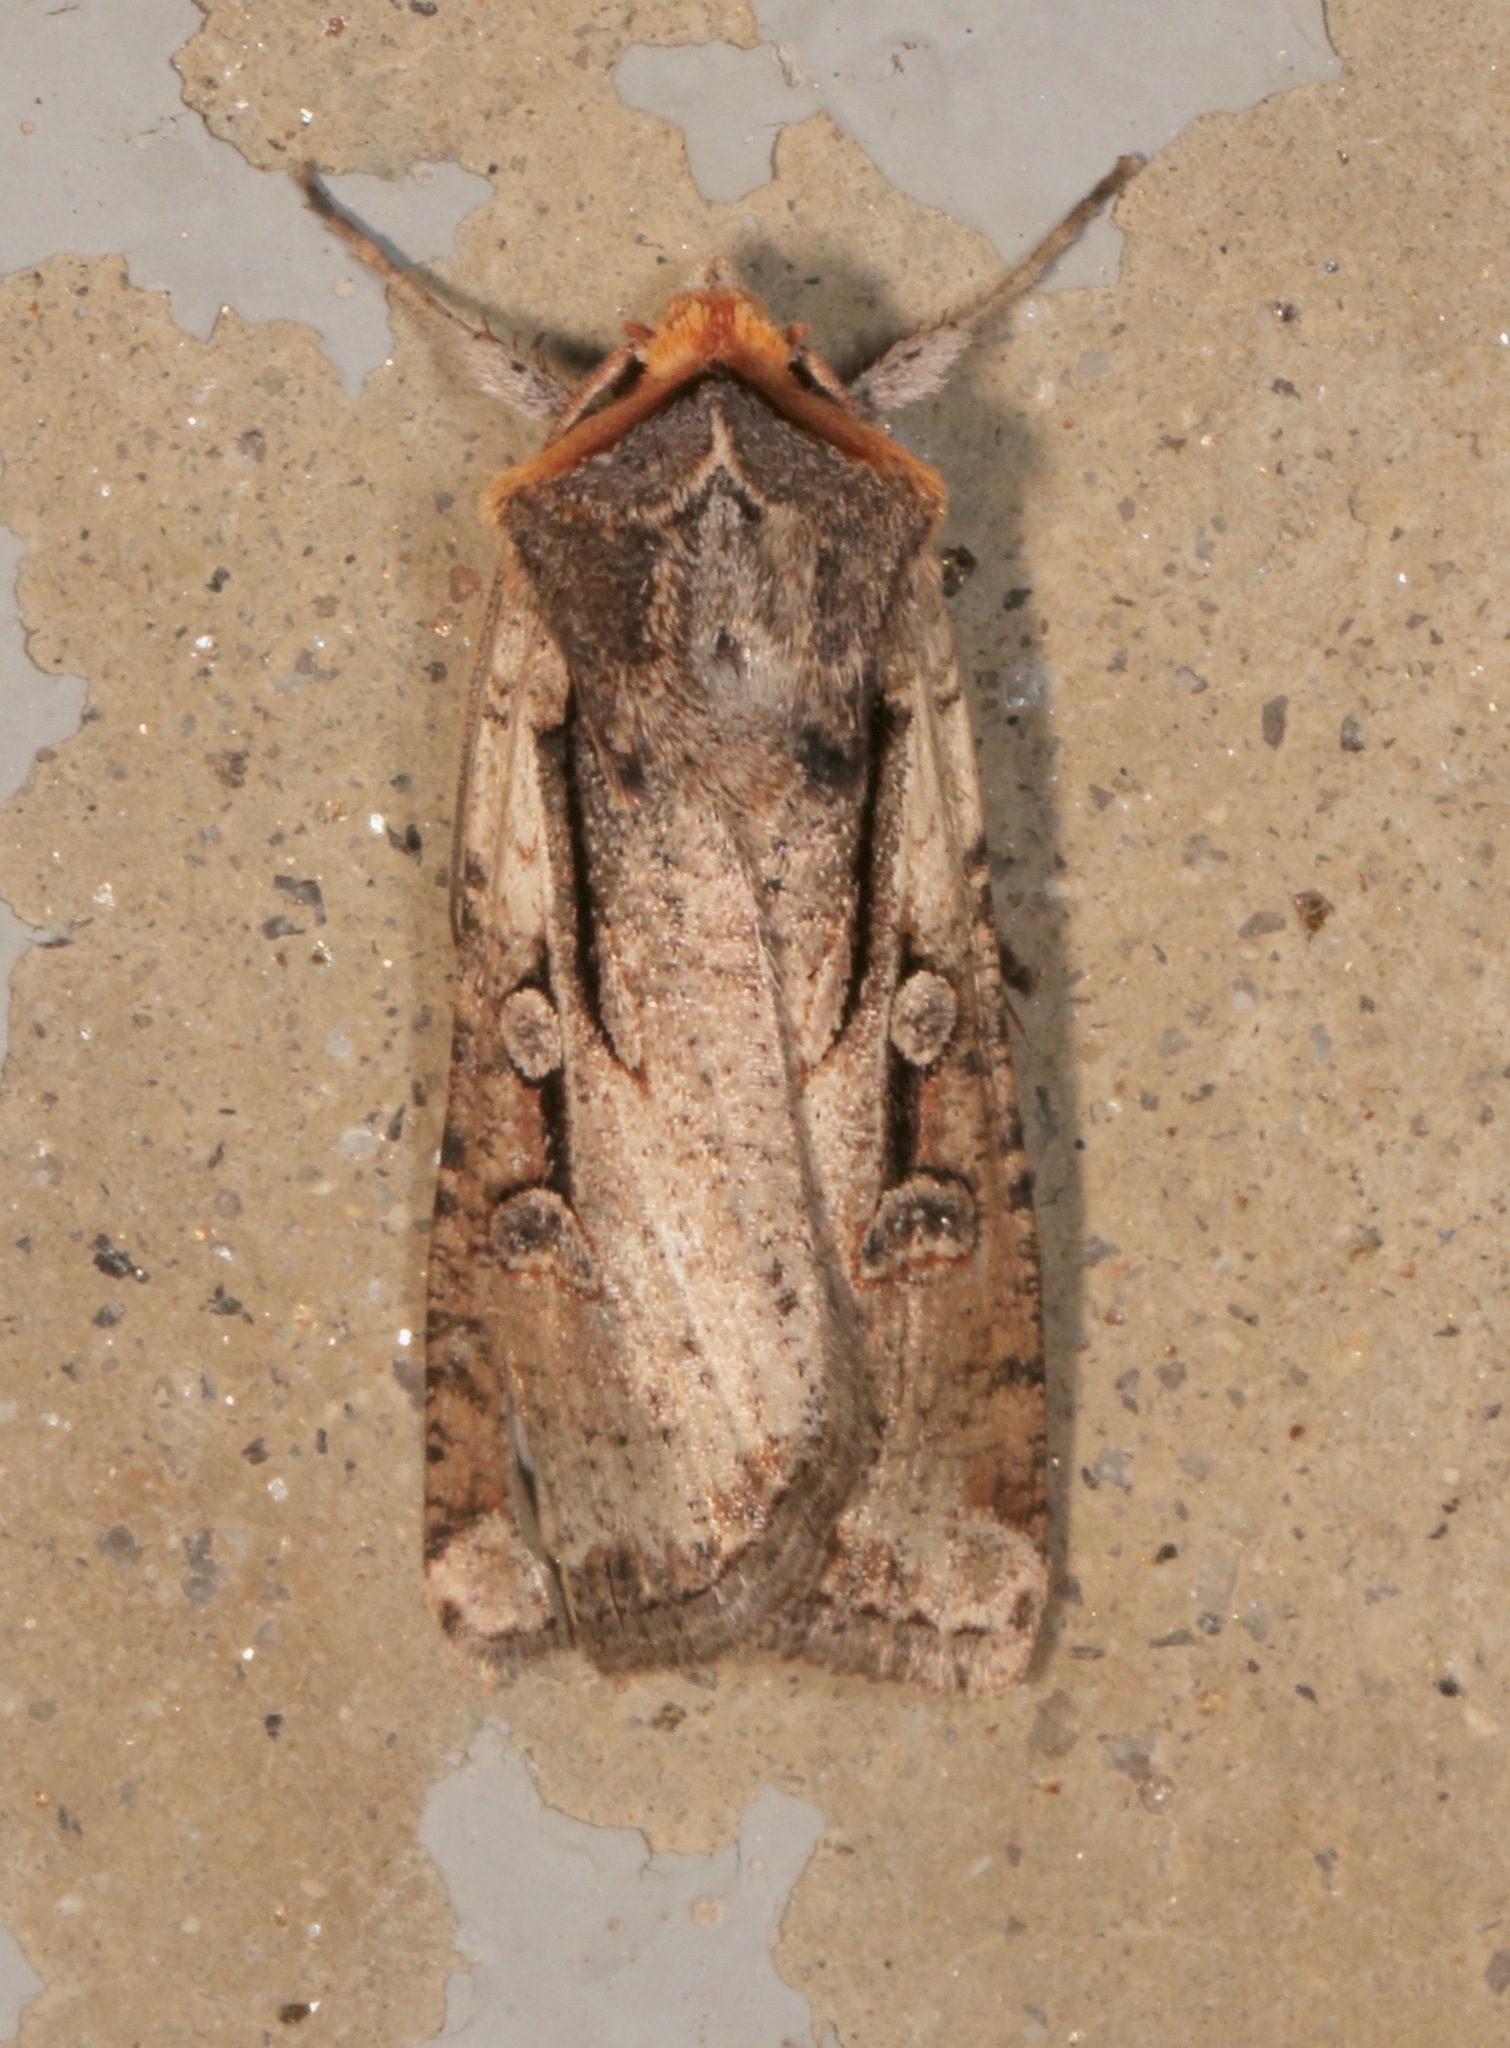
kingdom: Animalia
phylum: Arthropoda
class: Insecta
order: Lepidoptera
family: Noctuidae
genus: Hemieuxoa
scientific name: Hemieuxoa rudens
